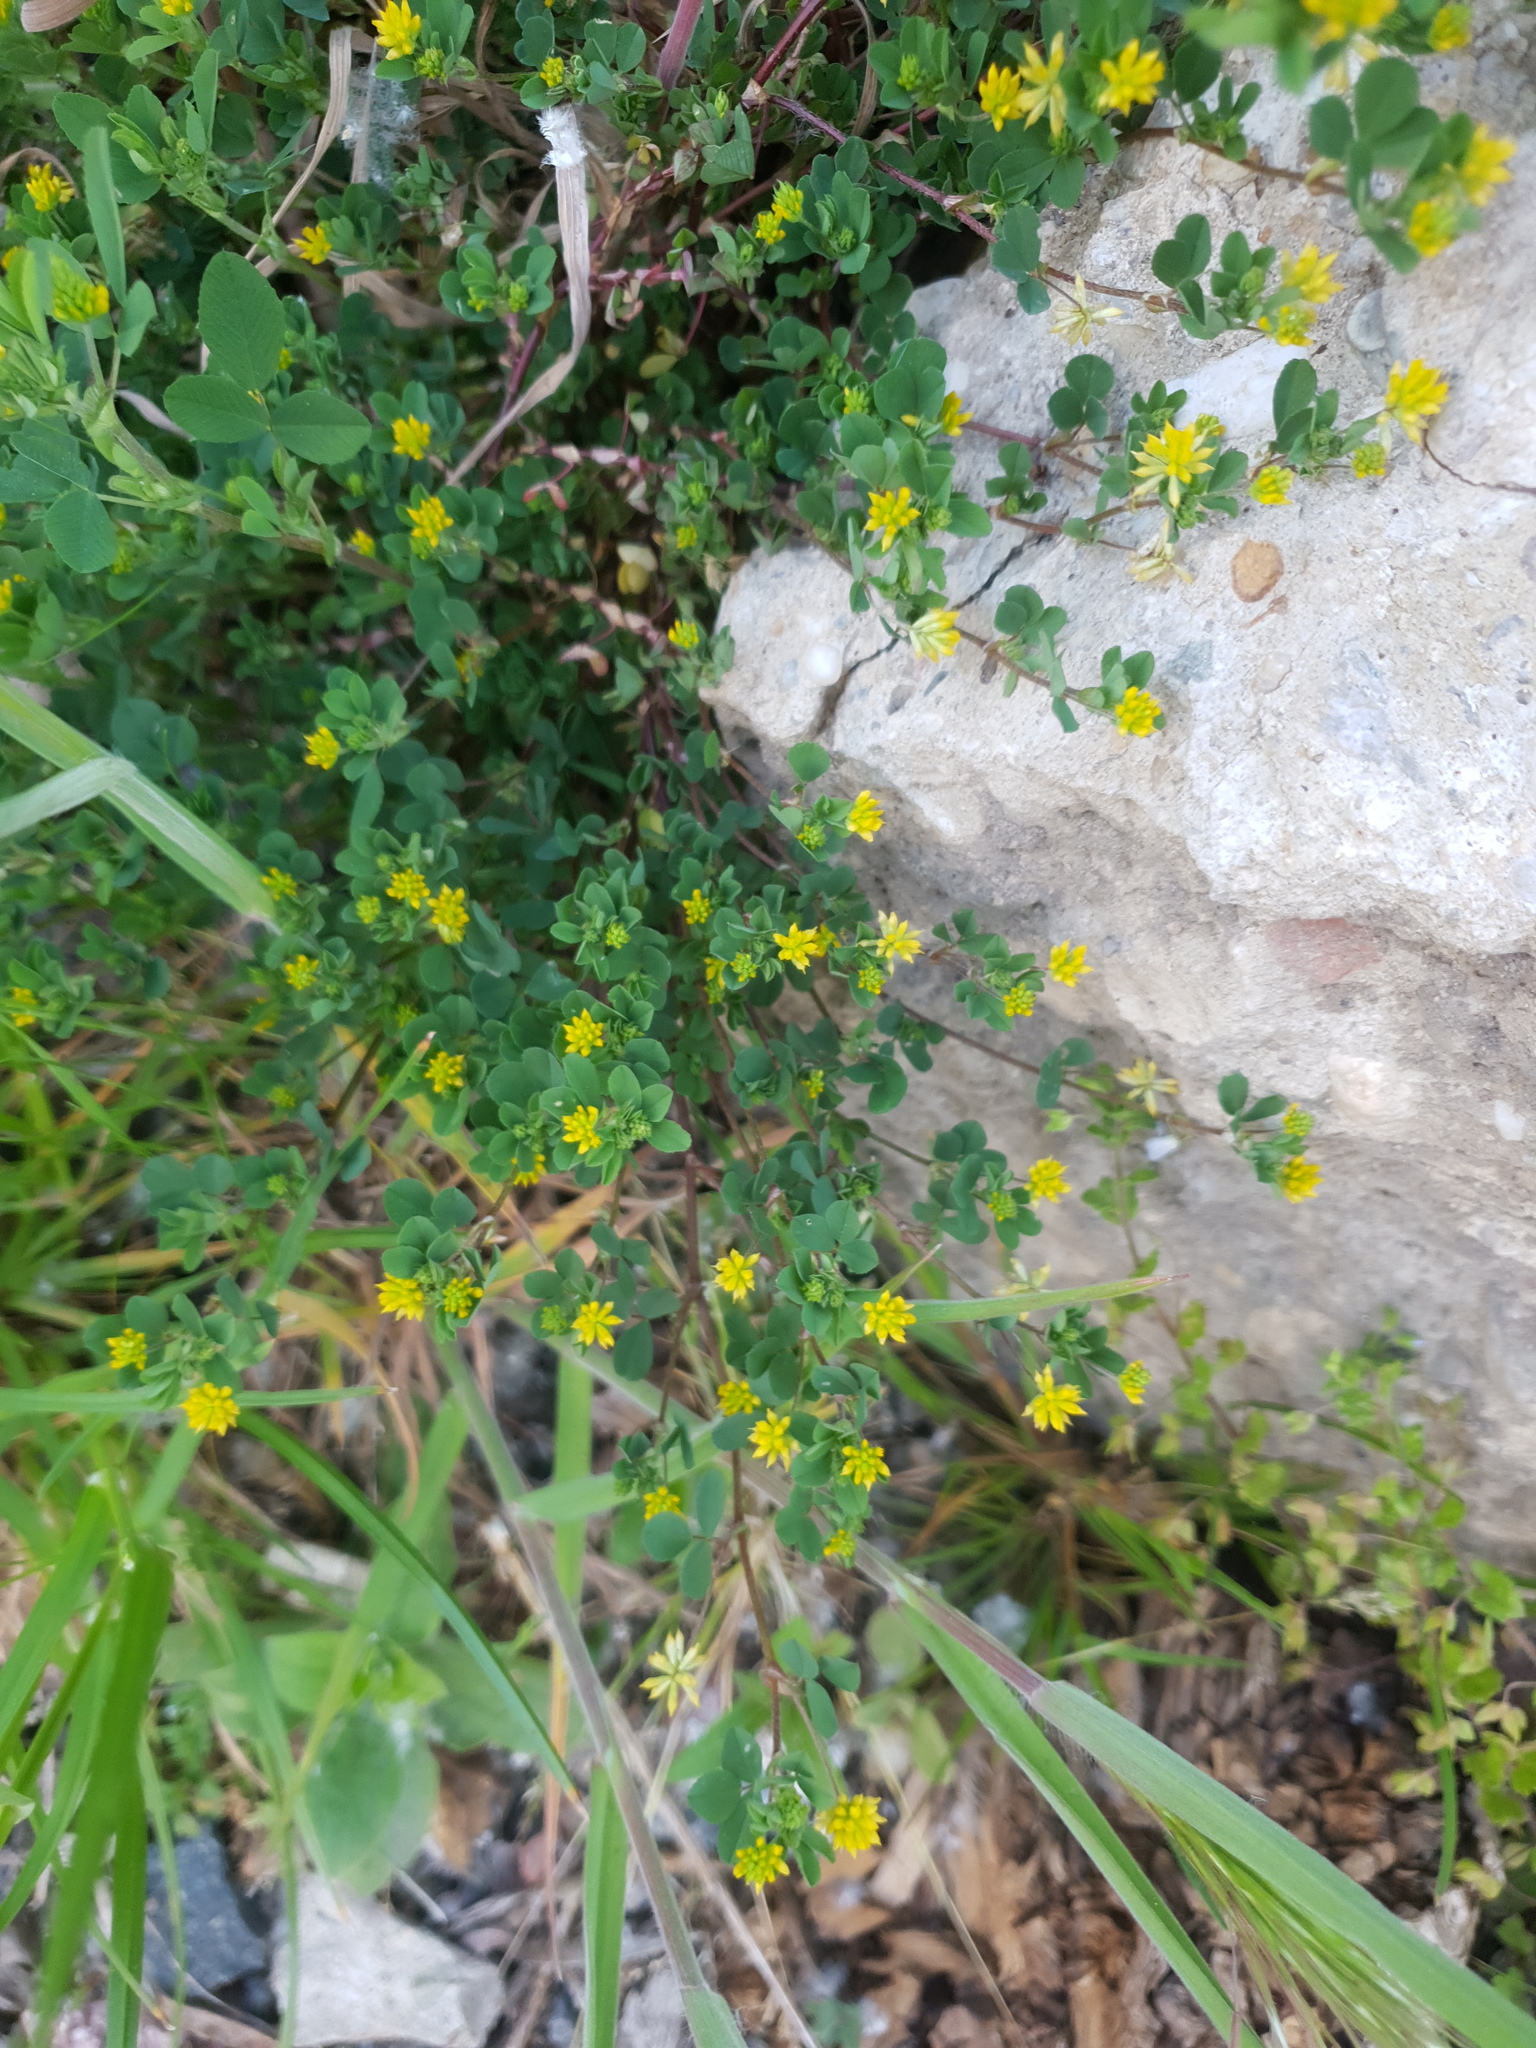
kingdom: Plantae
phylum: Tracheophyta
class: Magnoliopsida
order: Fabales
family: Fabaceae
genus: Trifolium
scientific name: Trifolium dubium
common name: Suckling clover
